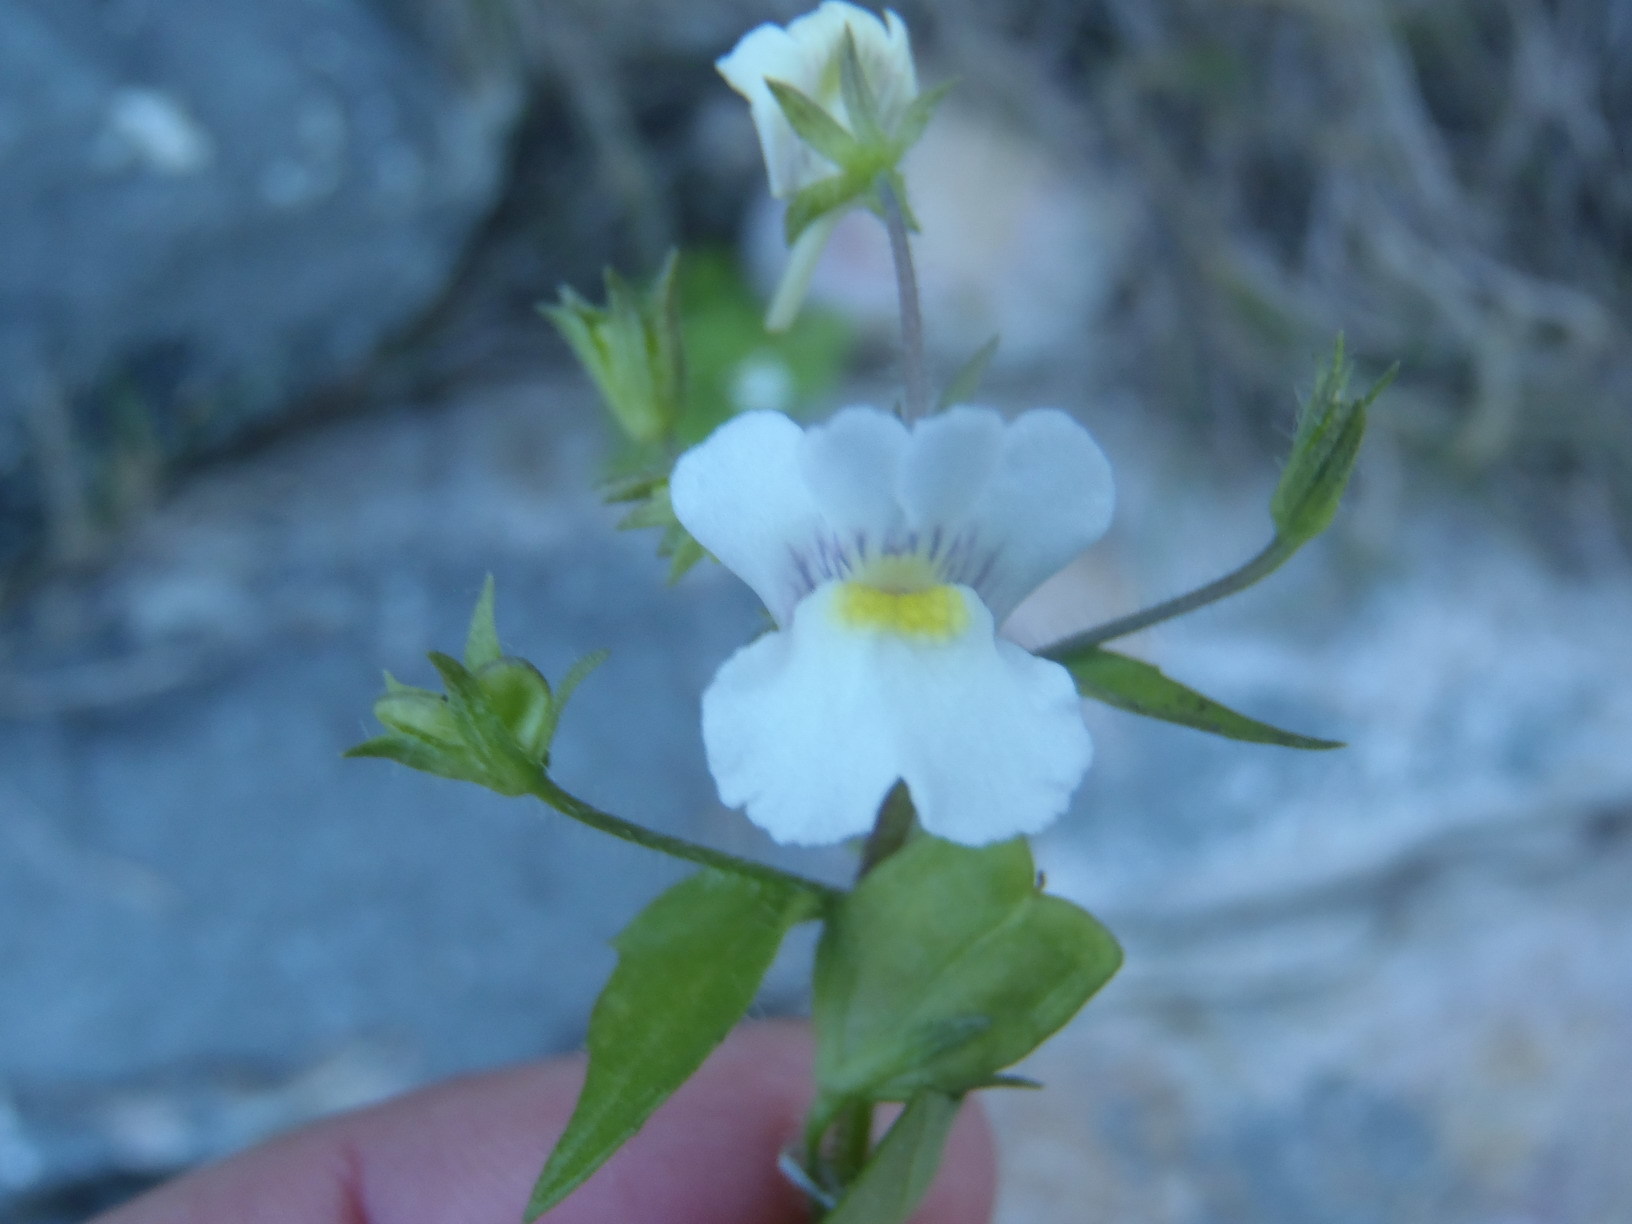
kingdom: Plantae
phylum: Tracheophyta
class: Magnoliopsida
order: Lamiales
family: Scrophulariaceae
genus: Nemesia
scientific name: Nemesia petiolina
